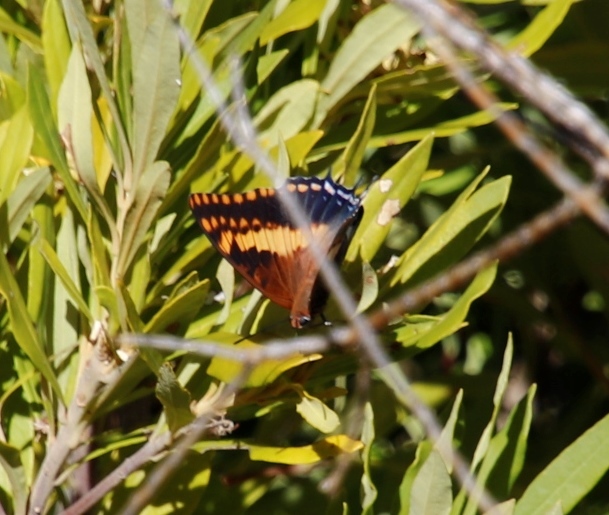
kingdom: Animalia
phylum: Arthropoda
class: Insecta
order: Lepidoptera
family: Nymphalidae
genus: Charaxes
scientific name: Charaxes pelias
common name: Protea charaxes
